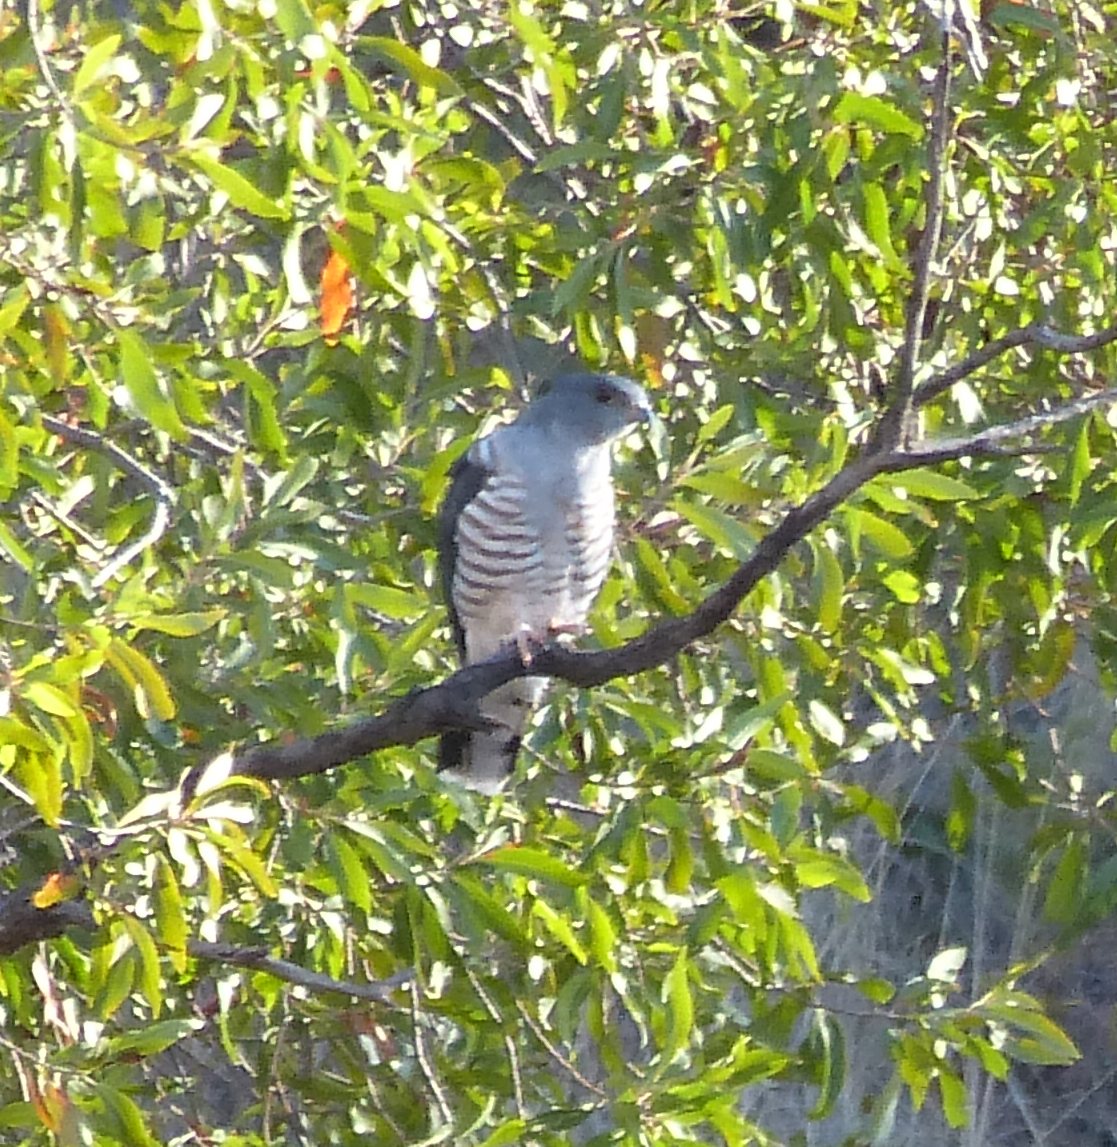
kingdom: Animalia
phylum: Chordata
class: Aves
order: Accipitriformes
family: Accipitridae
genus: Aviceda
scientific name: Aviceda cuculoides
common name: African cuckoo-hawk
